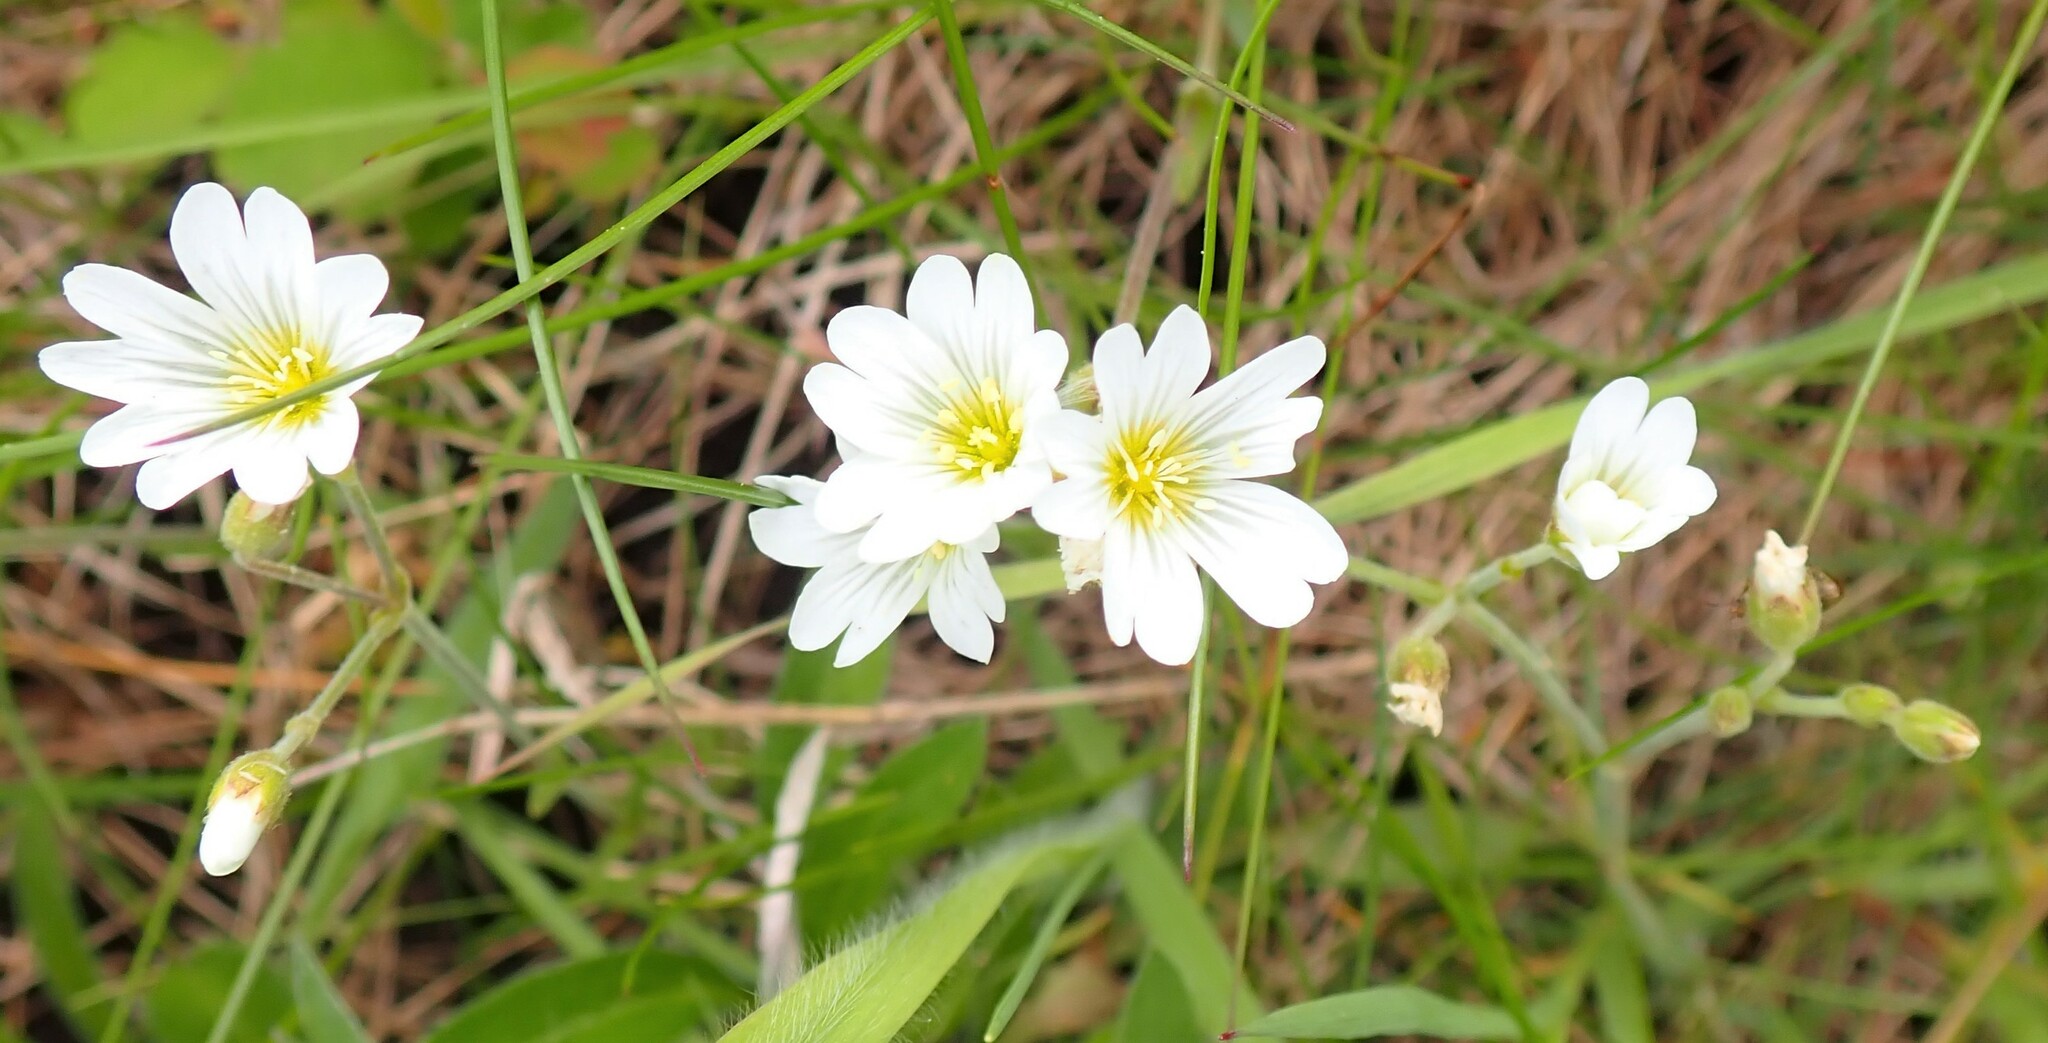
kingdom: Plantae
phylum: Tracheophyta
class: Magnoliopsida
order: Caryophyllales
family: Caryophyllaceae
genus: Cerastium
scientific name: Cerastium arvense
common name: Field mouse-ear
